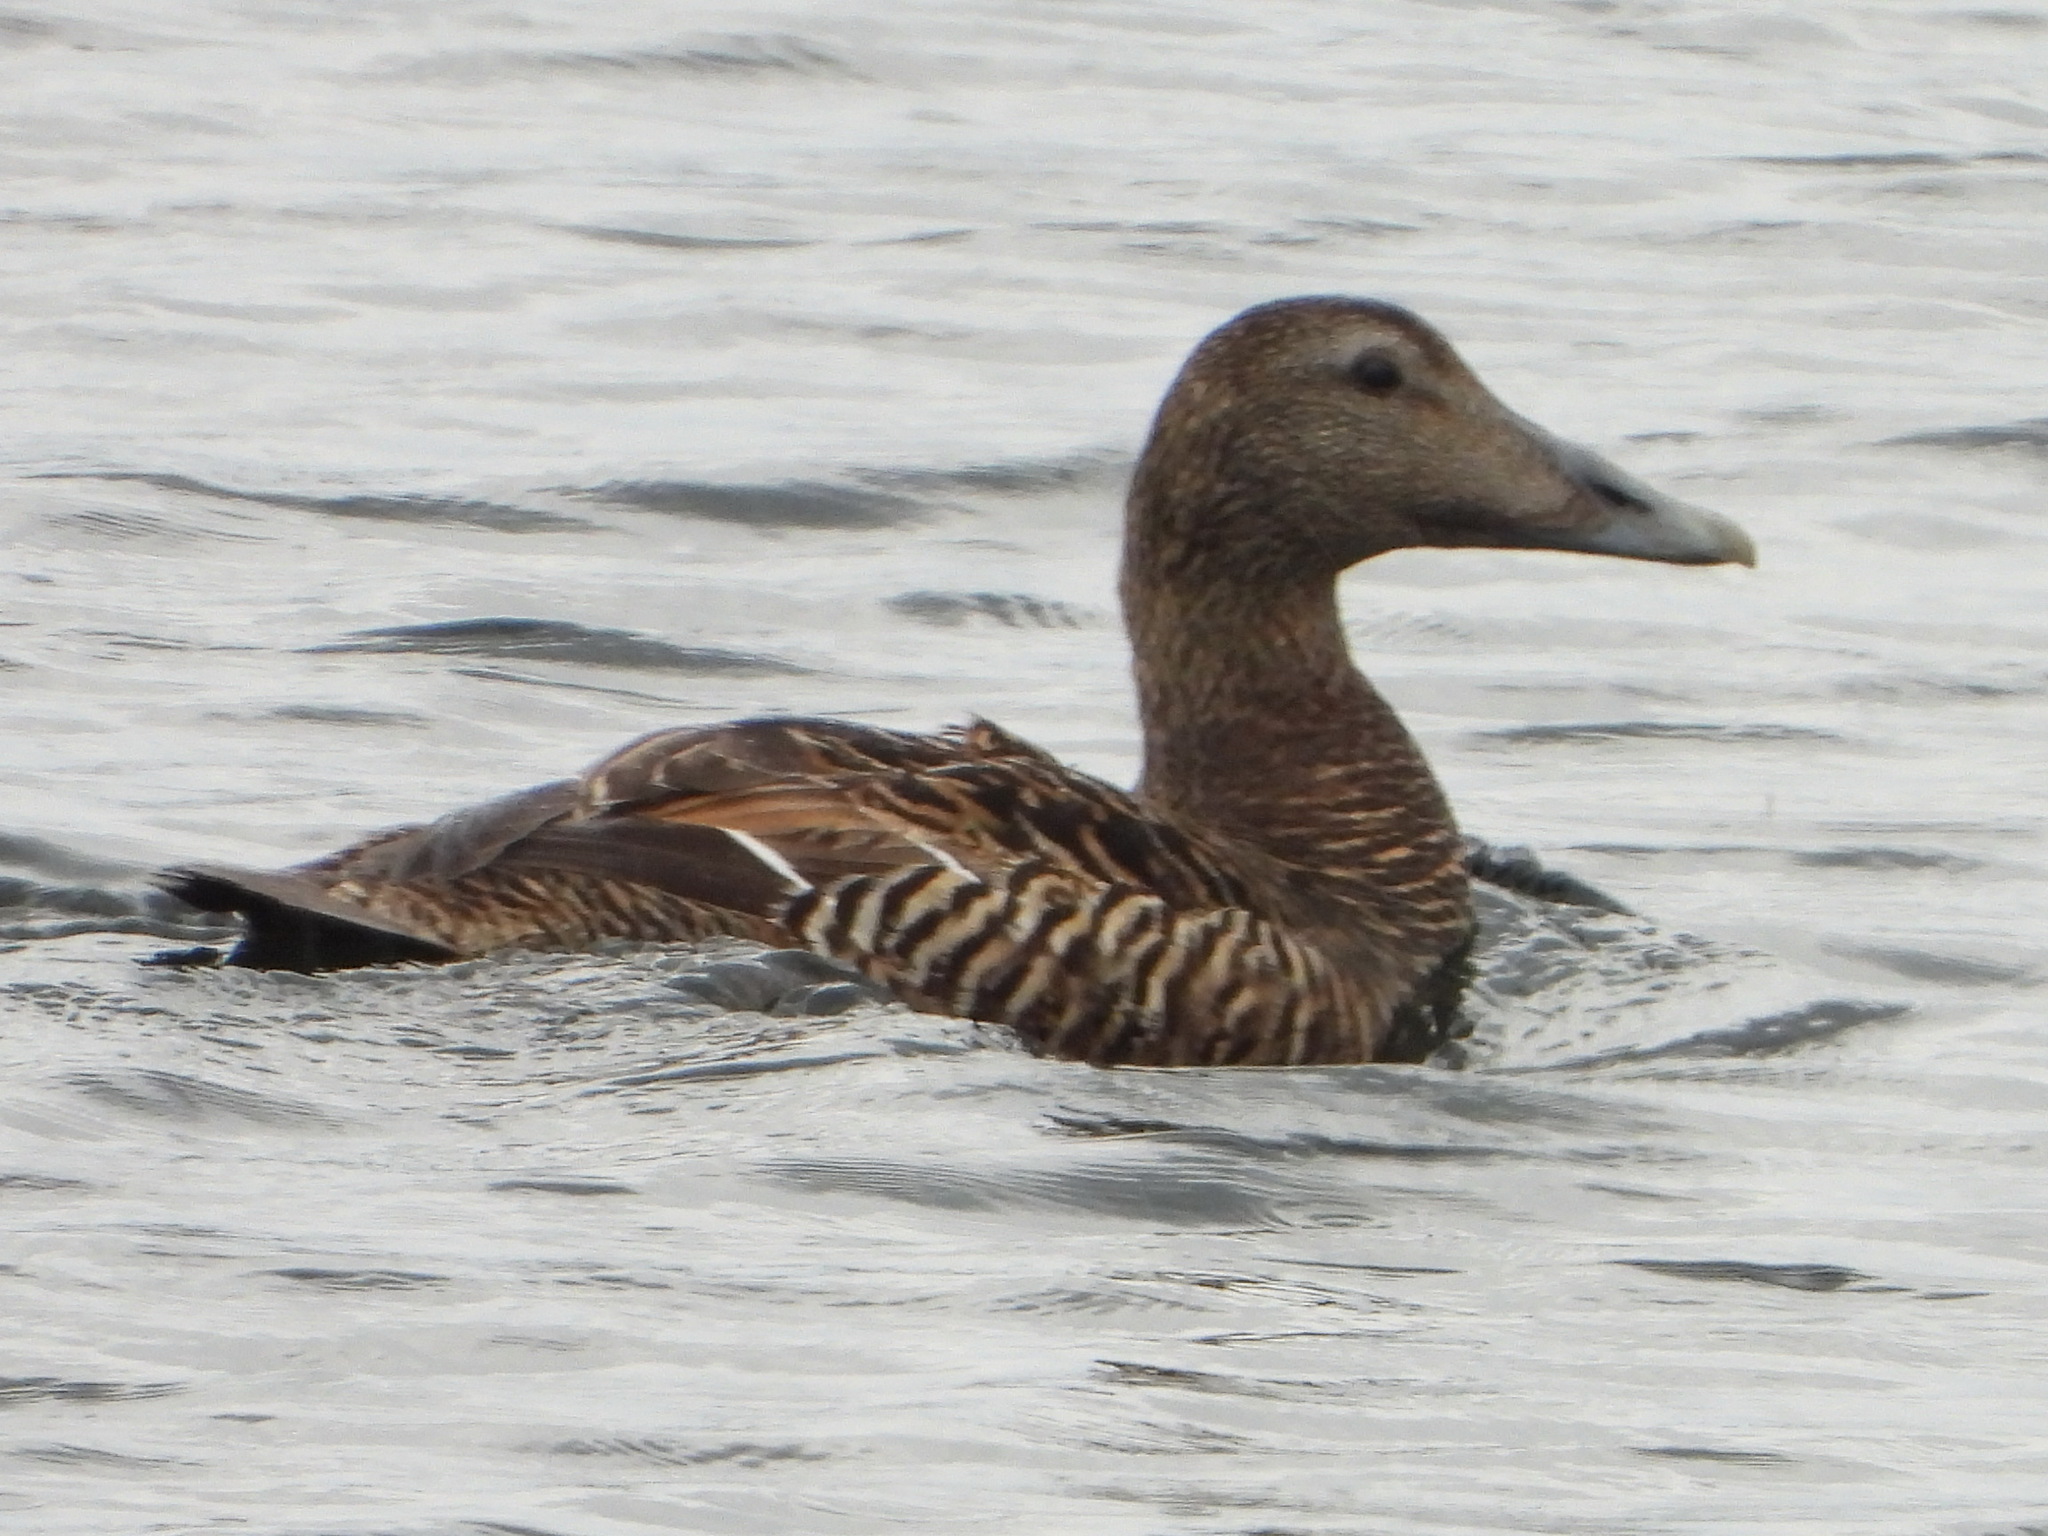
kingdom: Animalia
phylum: Chordata
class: Aves
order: Anseriformes
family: Anatidae
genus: Somateria
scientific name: Somateria mollissima
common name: Common eider
